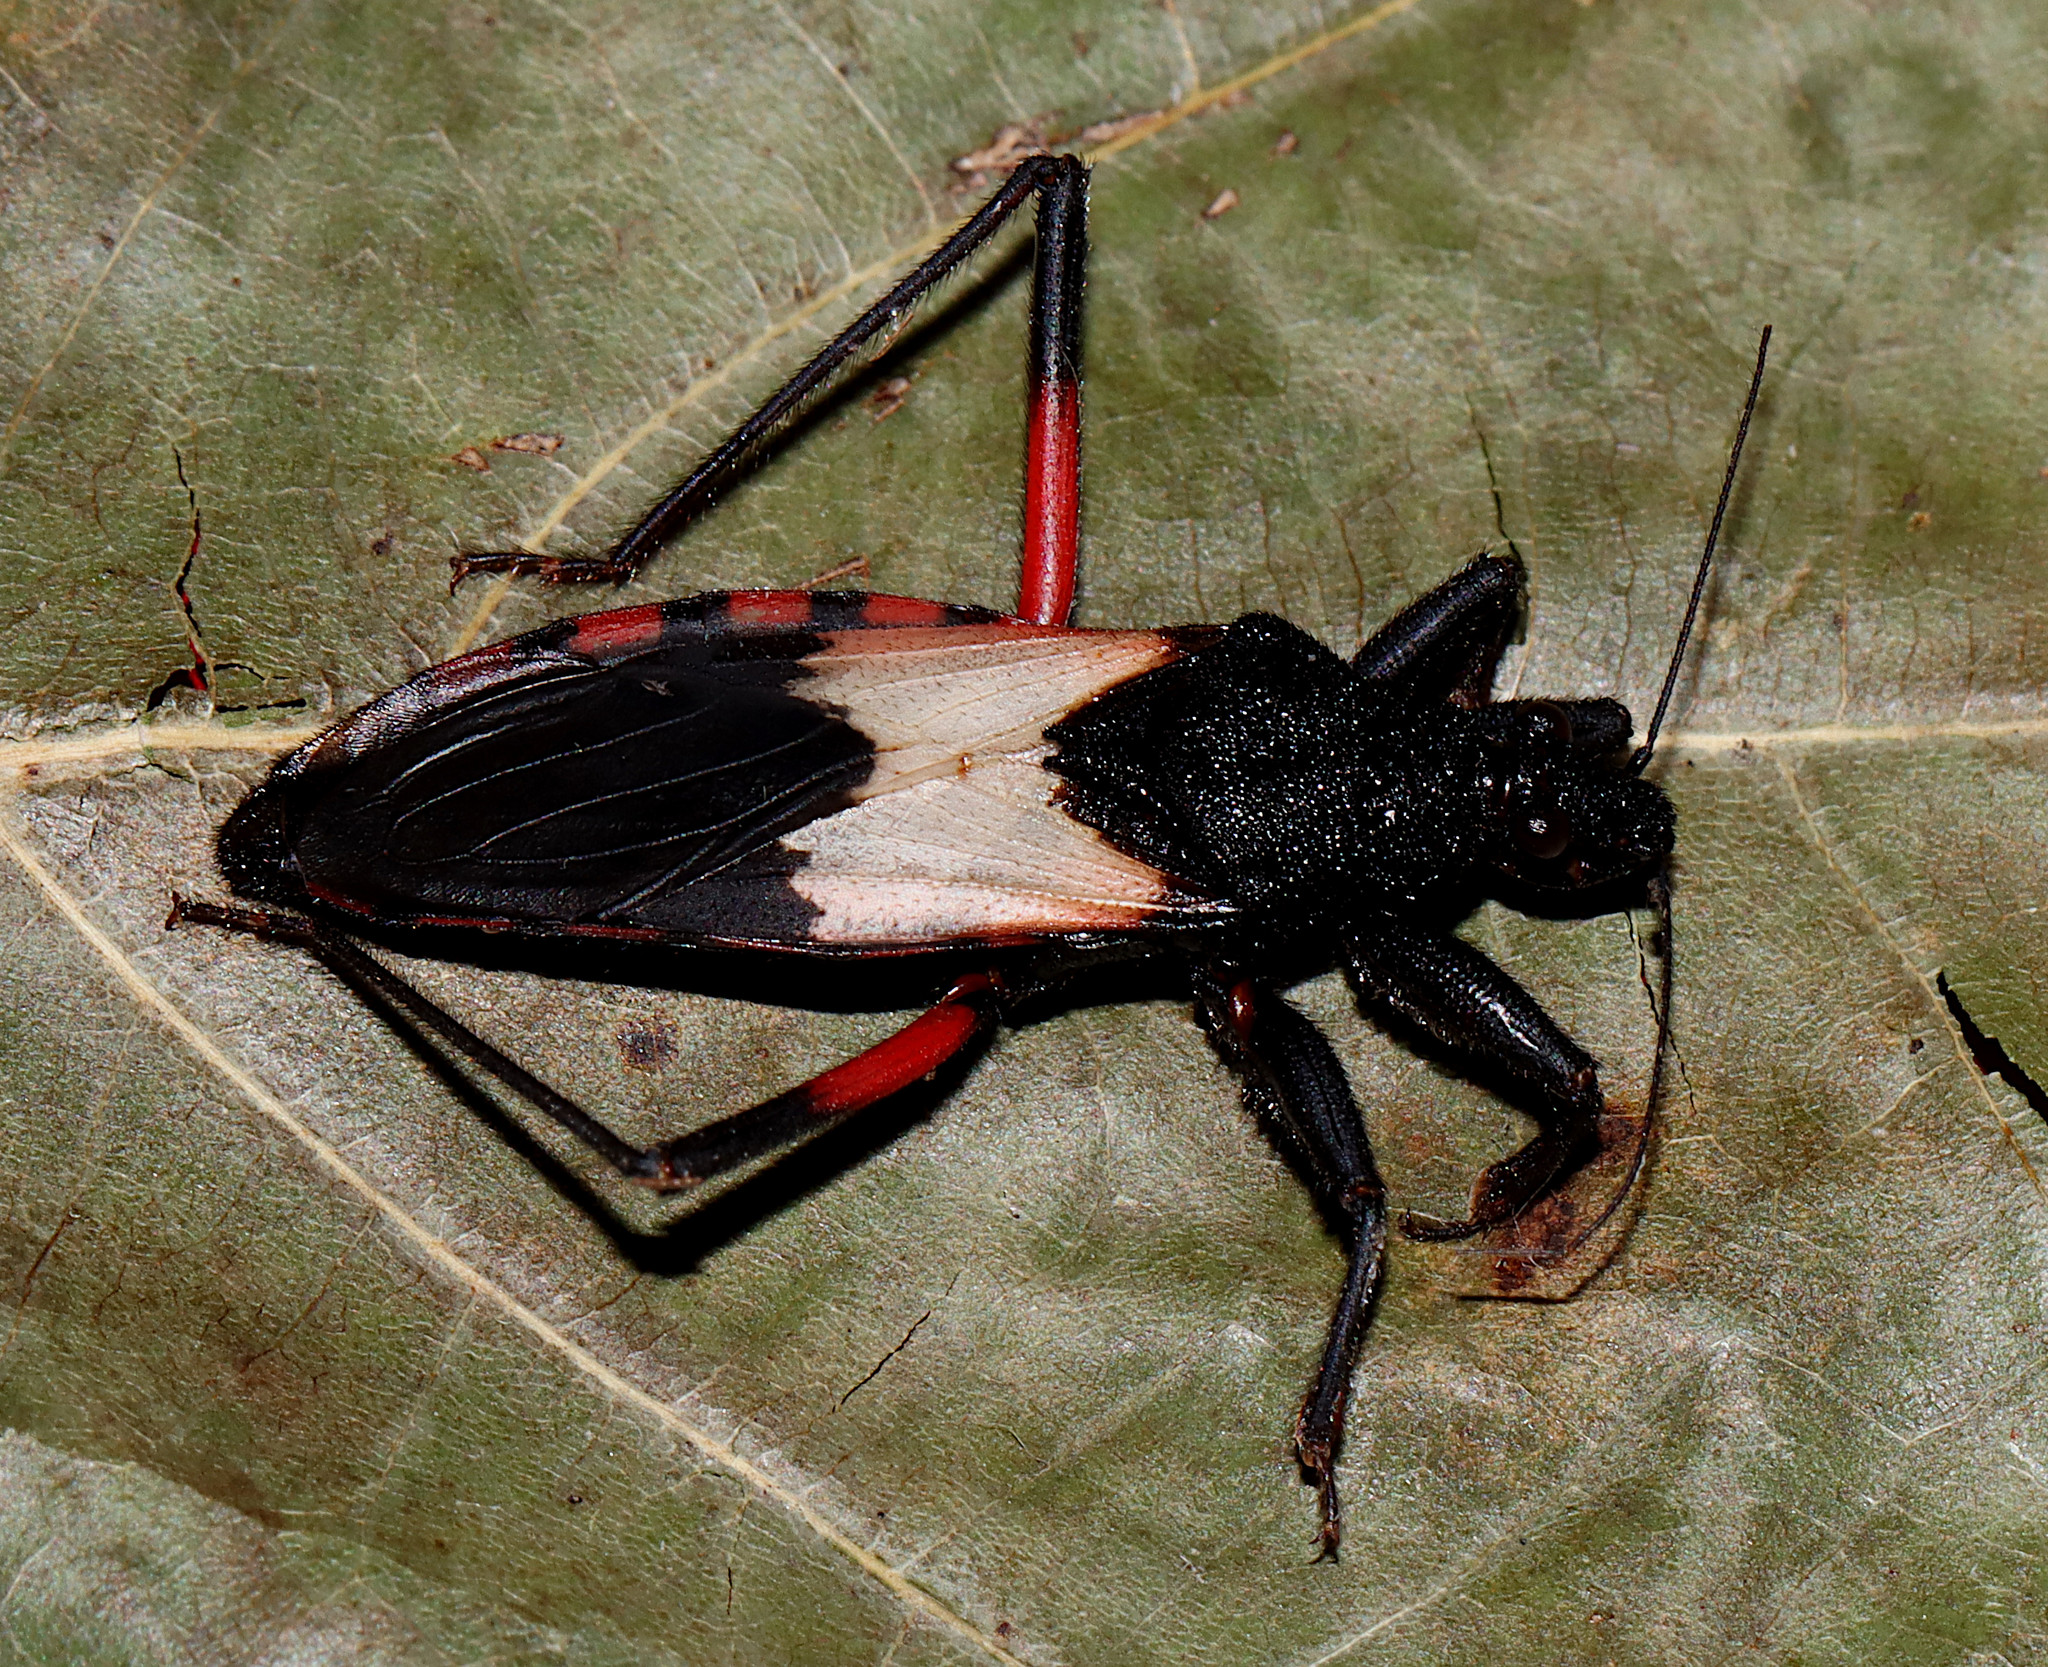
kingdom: Animalia
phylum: Arthropoda
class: Insecta
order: Hemiptera
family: Reduviidae
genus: Microtomus
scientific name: Microtomus purcis
